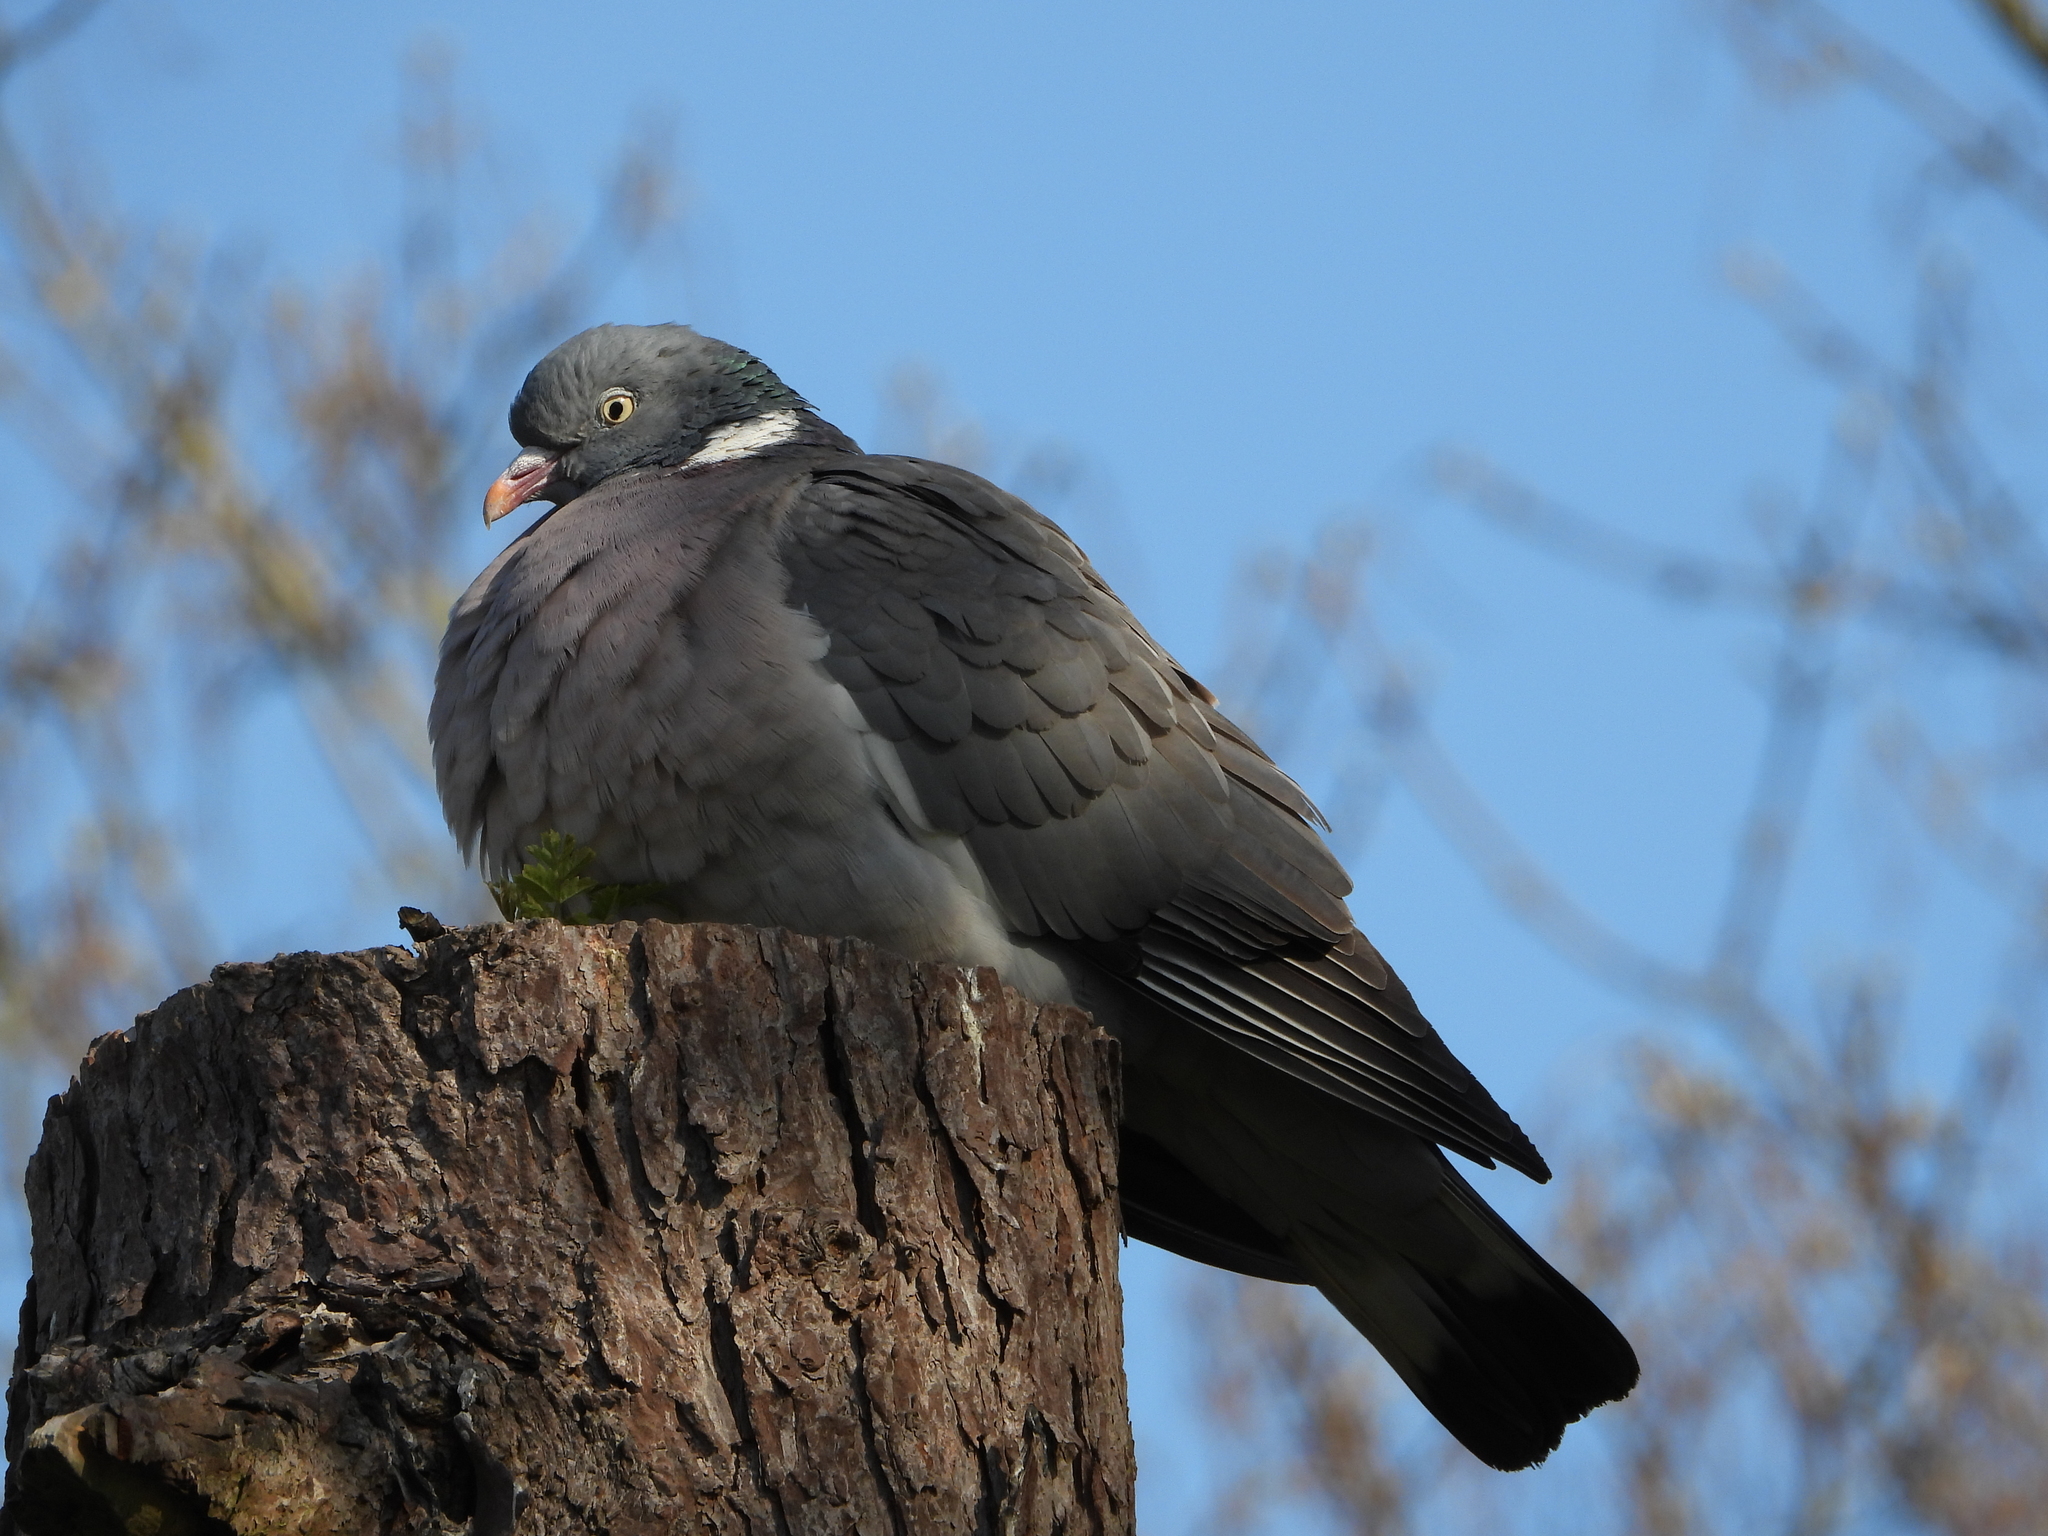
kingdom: Animalia
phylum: Chordata
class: Aves
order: Columbiformes
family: Columbidae
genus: Columba
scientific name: Columba palumbus
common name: Common wood pigeon
